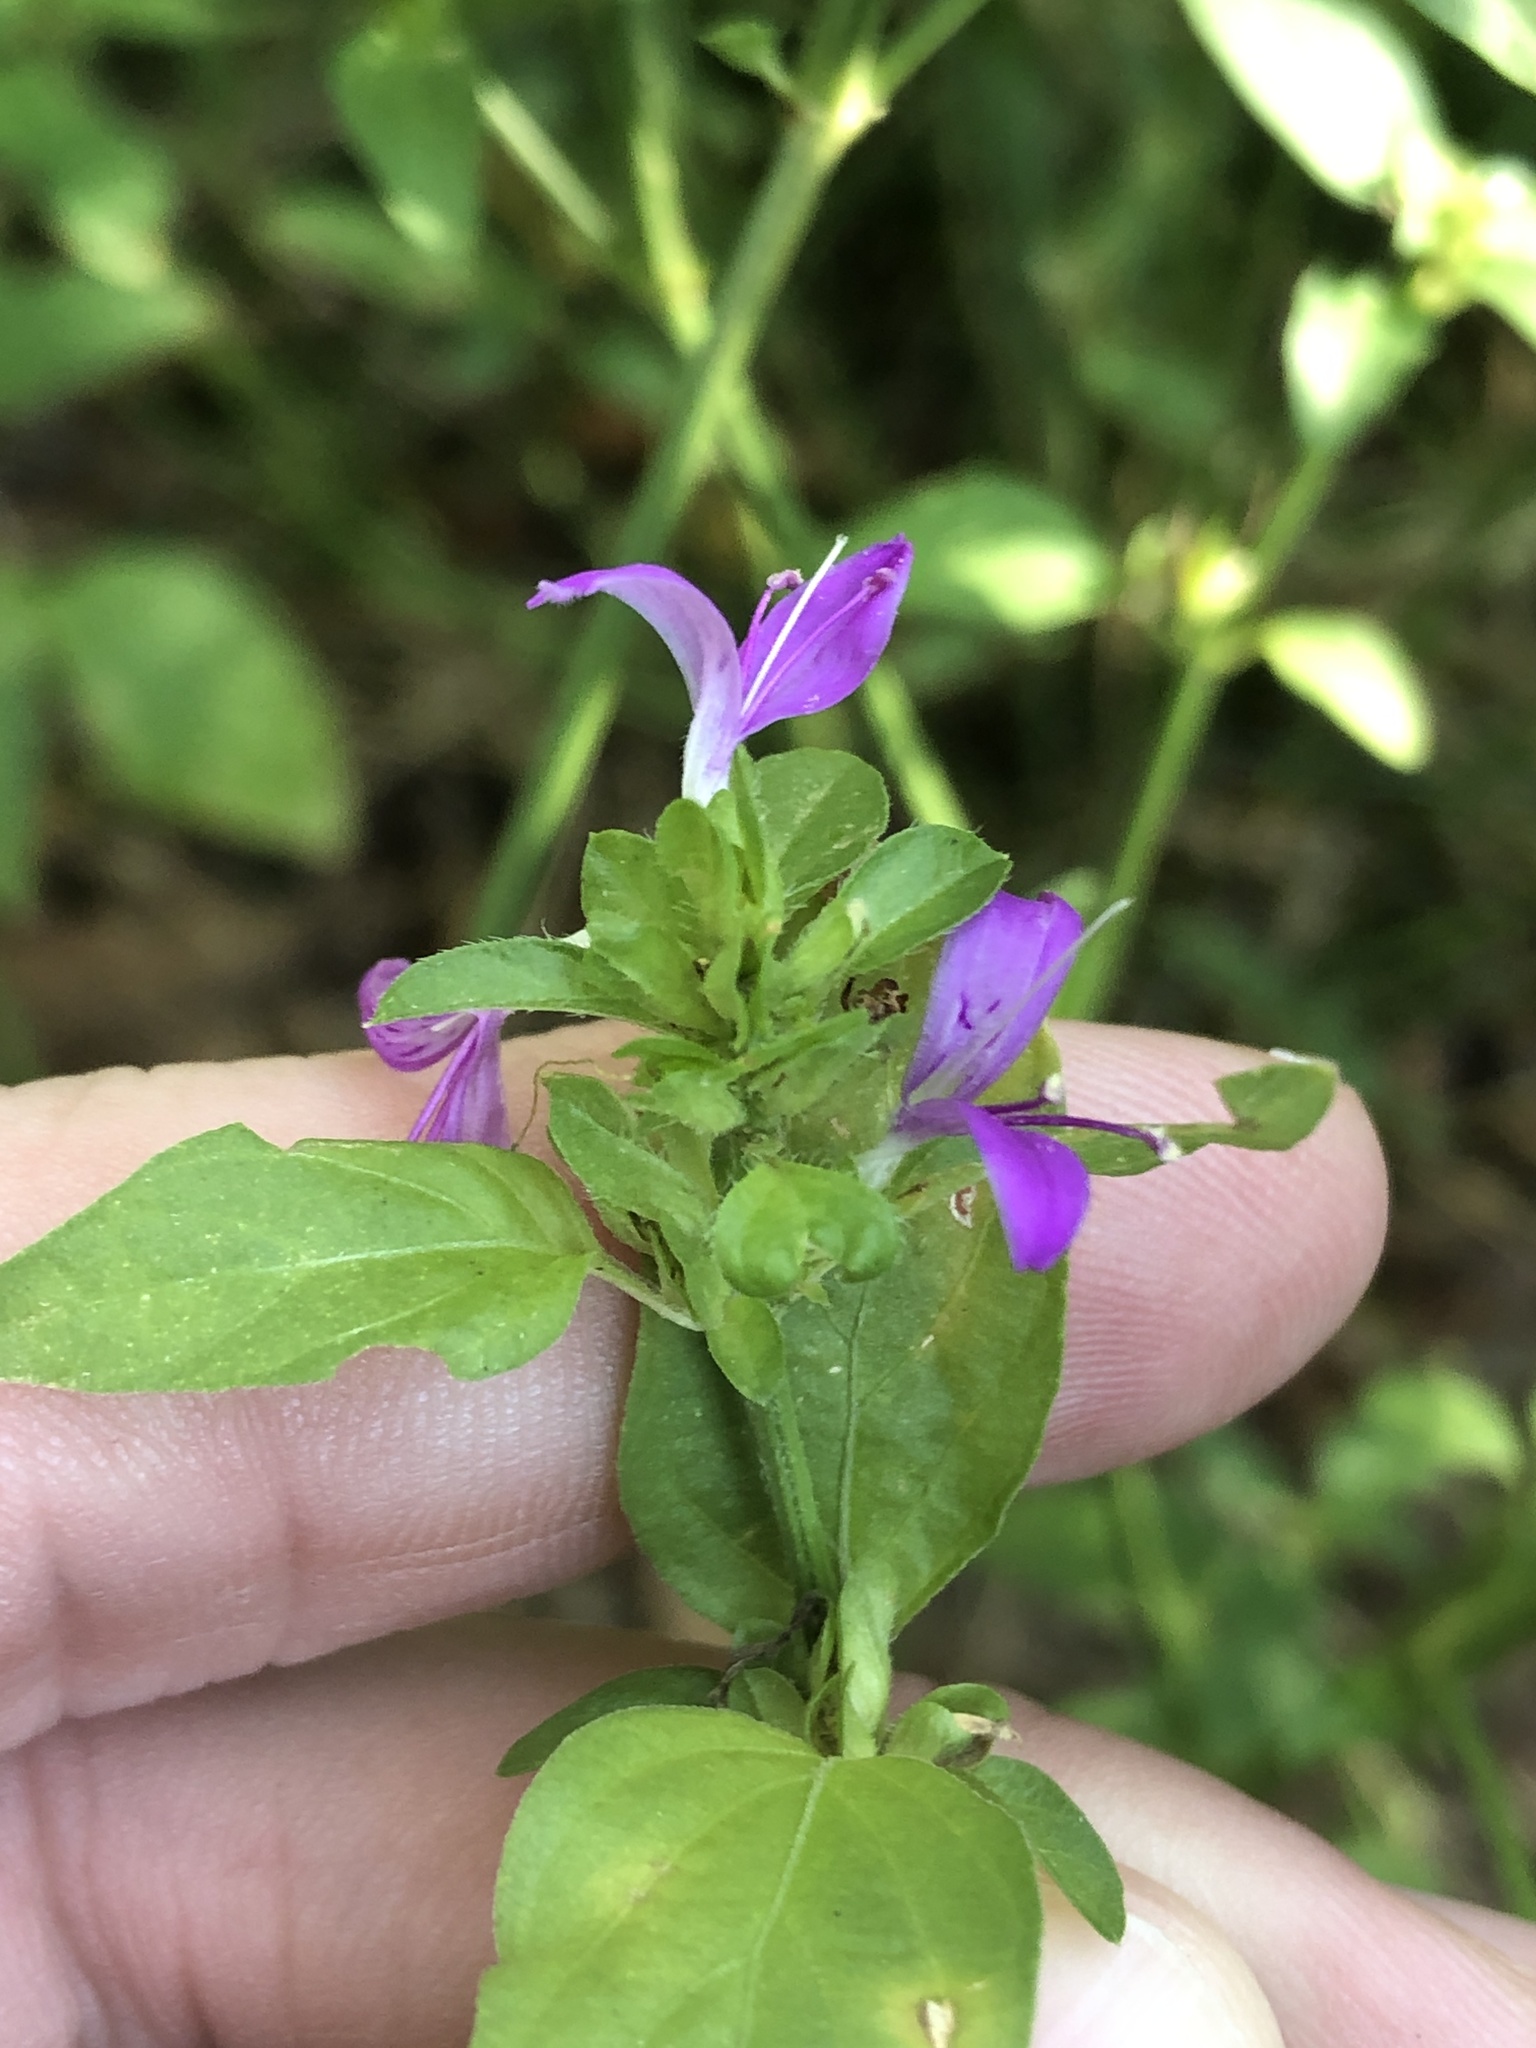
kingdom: Plantae
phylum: Tracheophyta
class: Magnoliopsida
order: Lamiales
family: Acanthaceae
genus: Dicliptera
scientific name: Dicliptera brachiata
